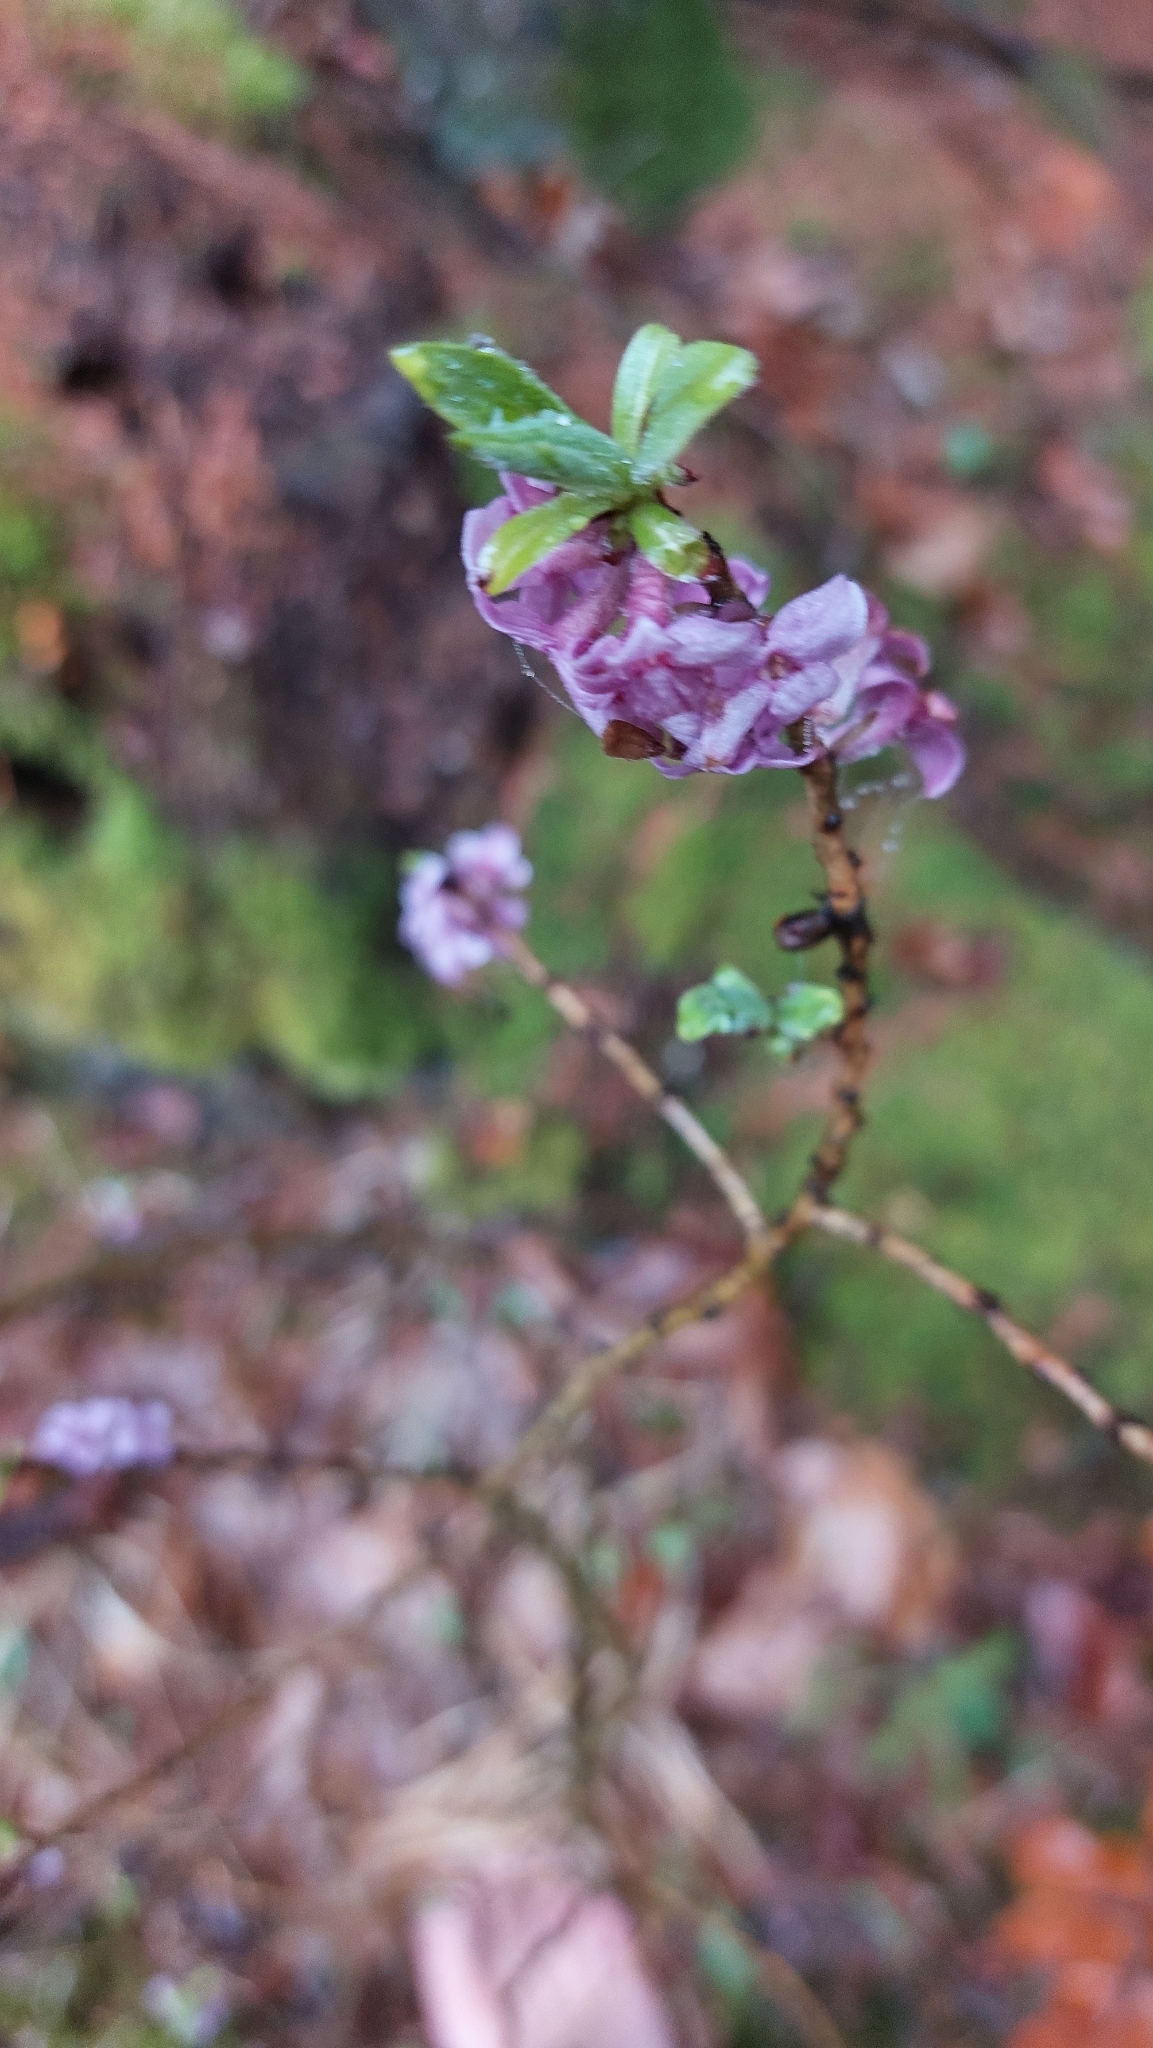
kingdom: Plantae
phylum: Tracheophyta
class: Magnoliopsida
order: Malvales
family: Thymelaeaceae
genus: Daphne
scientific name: Daphne mezereum
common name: Mezereon
